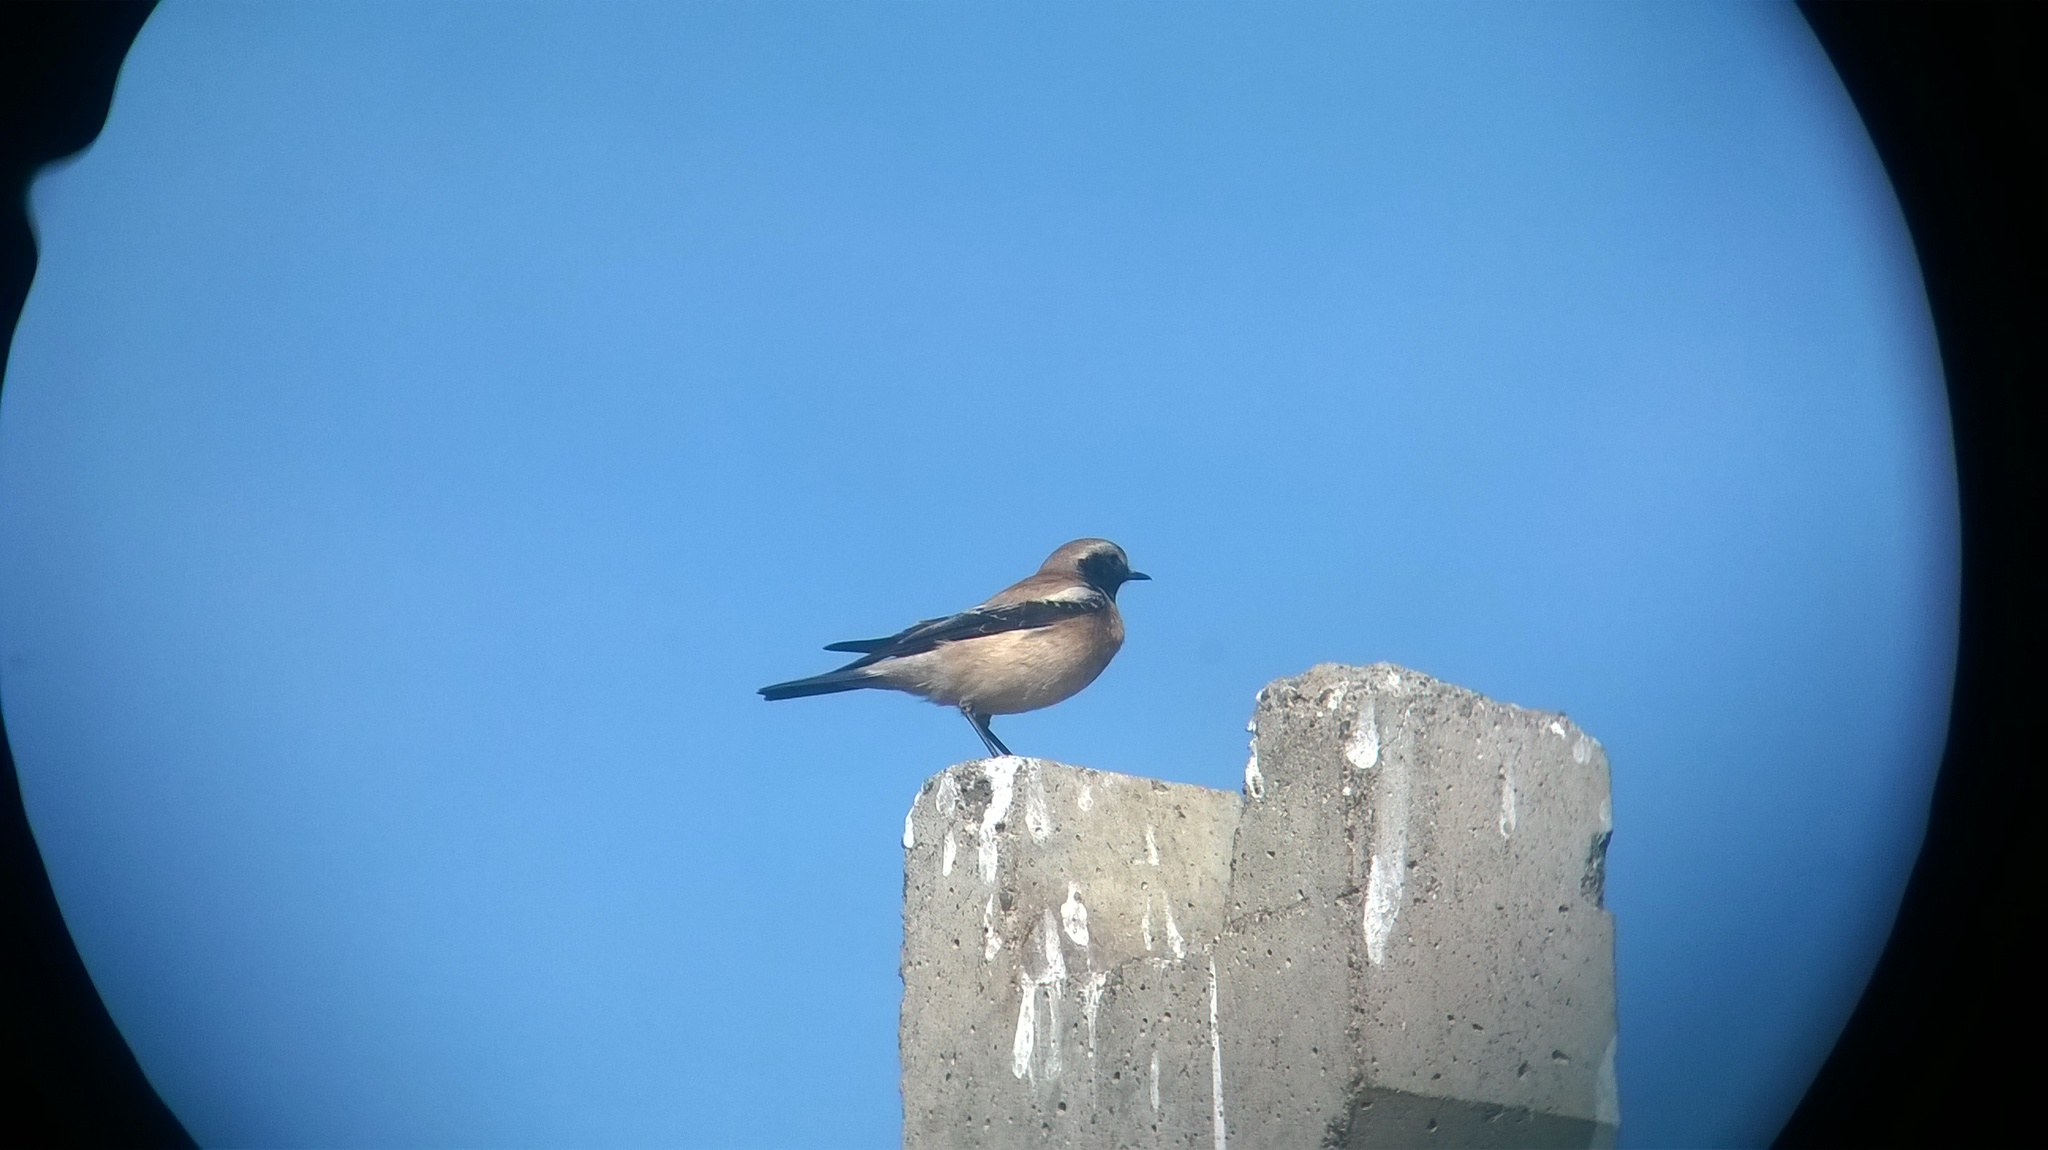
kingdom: Animalia
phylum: Chordata
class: Aves
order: Passeriformes
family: Muscicapidae
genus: Oenanthe
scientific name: Oenanthe deserti
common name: Desert wheatear
